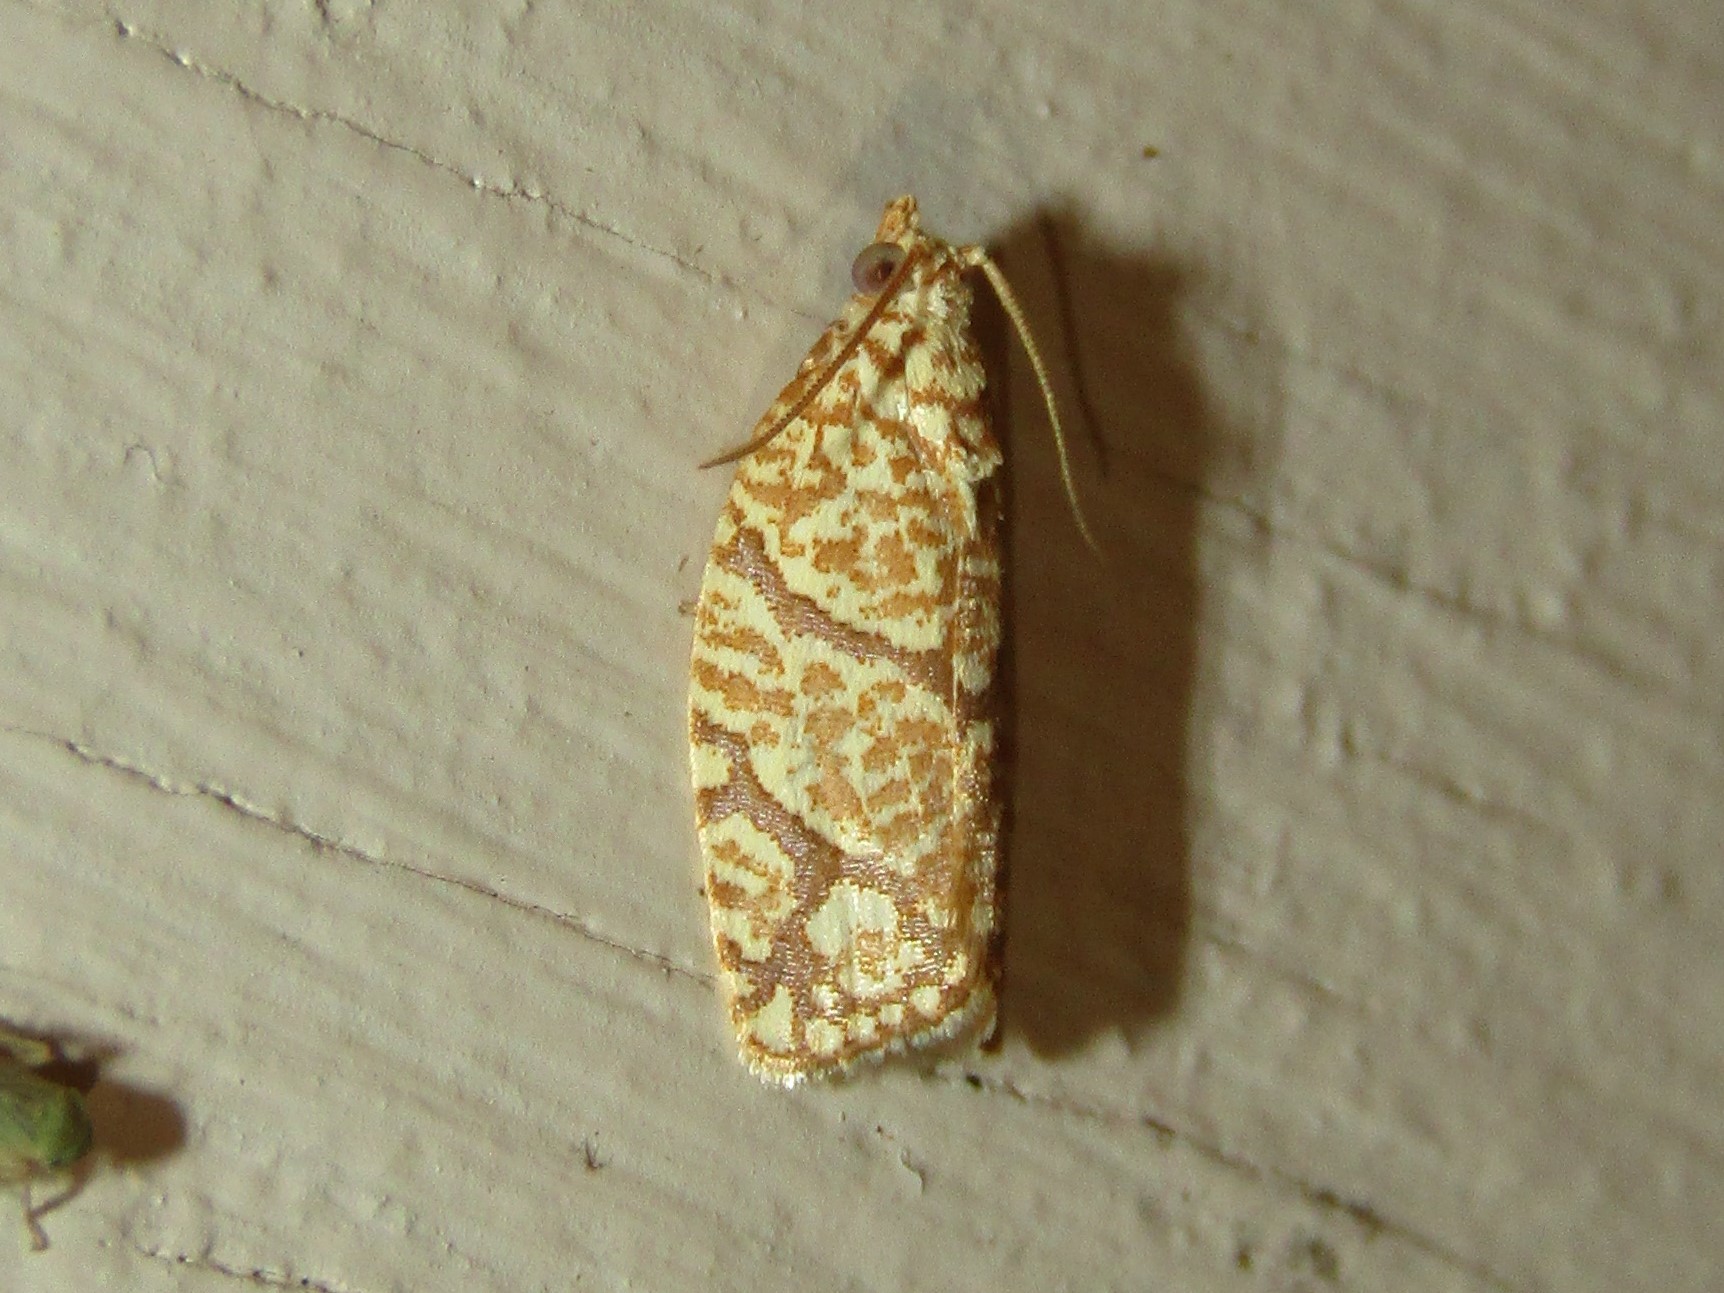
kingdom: Animalia
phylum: Arthropoda
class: Insecta
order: Lepidoptera
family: Tortricidae
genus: Argyrotaenia
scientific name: Argyrotaenia quercifoliana
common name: Yellow-winged oak leafroller moth
